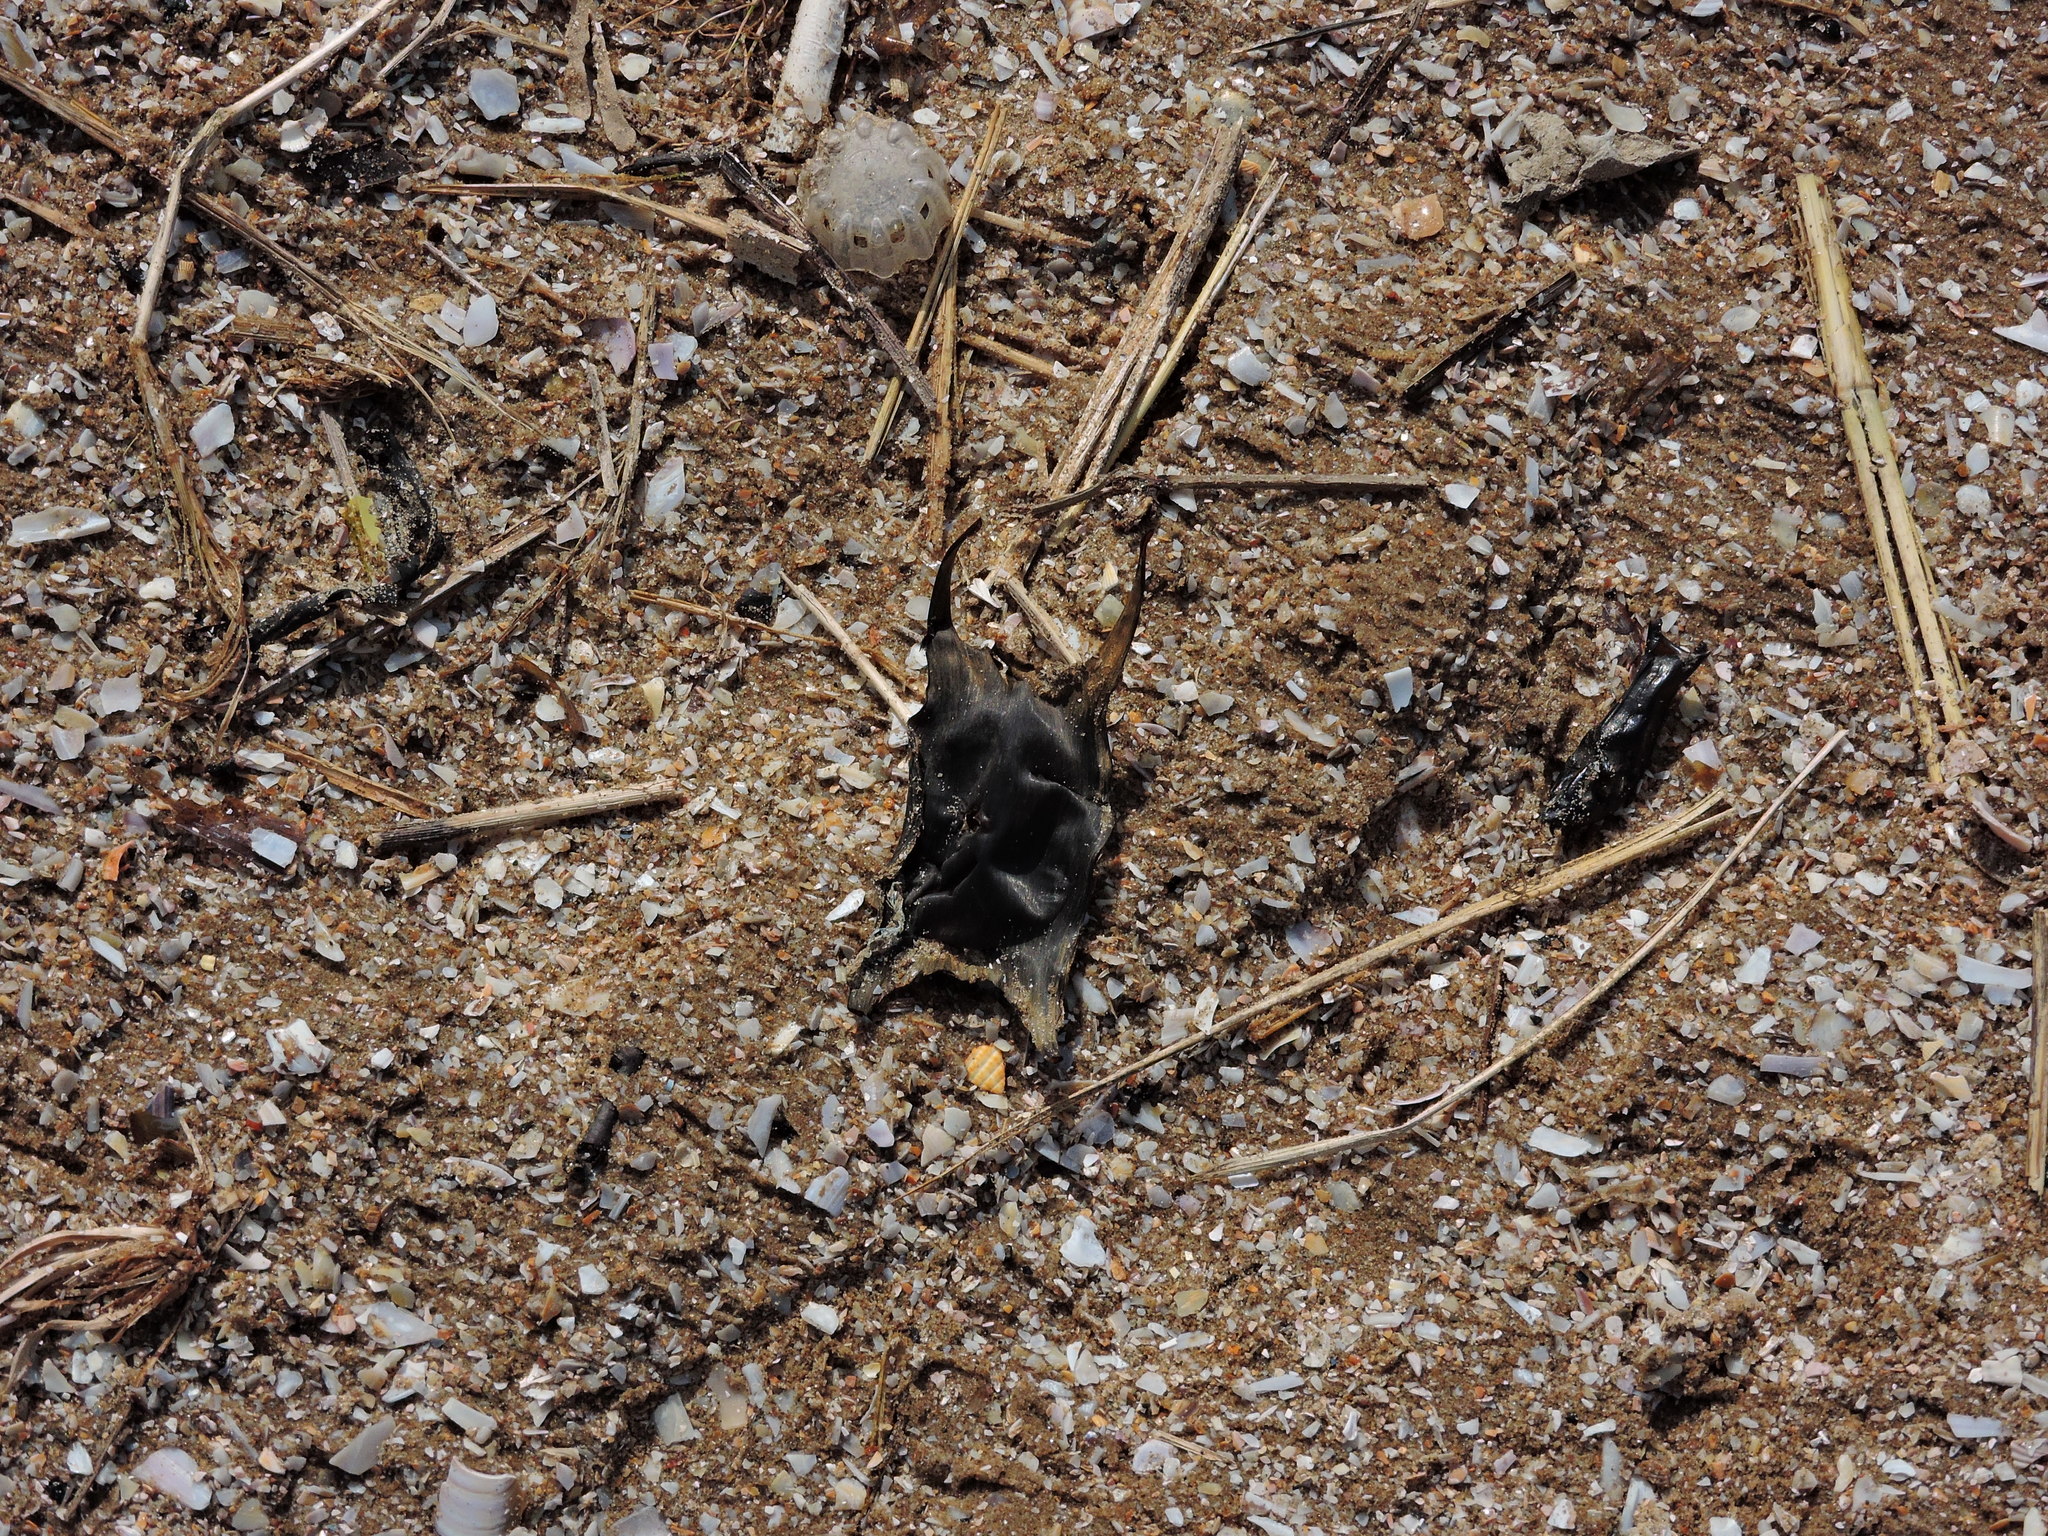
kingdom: Animalia
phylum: Chordata
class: Elasmobranchii
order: Rajiformes
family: Rajidae
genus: Raja
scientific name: Raja clavata
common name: Thornback ray
